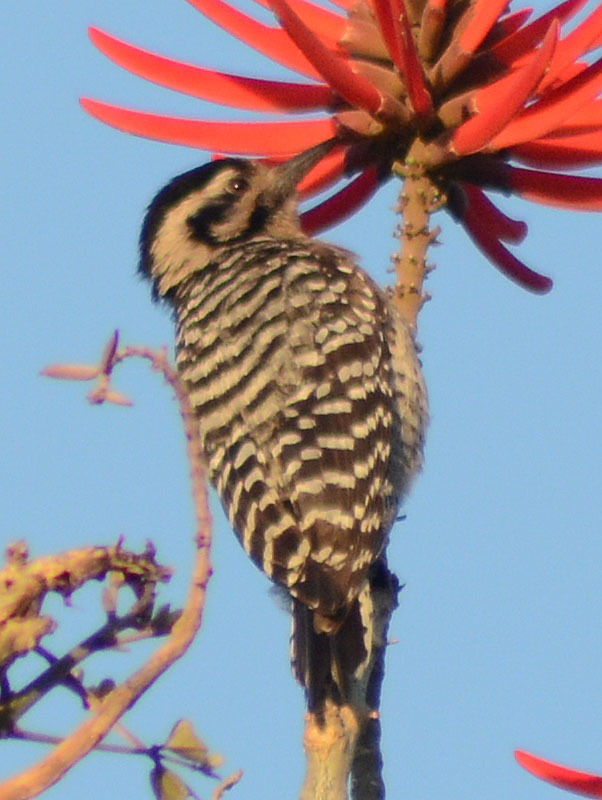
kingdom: Animalia
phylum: Chordata
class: Aves
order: Piciformes
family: Picidae
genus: Dryobates
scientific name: Dryobates scalaris
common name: Ladder-backed woodpecker
